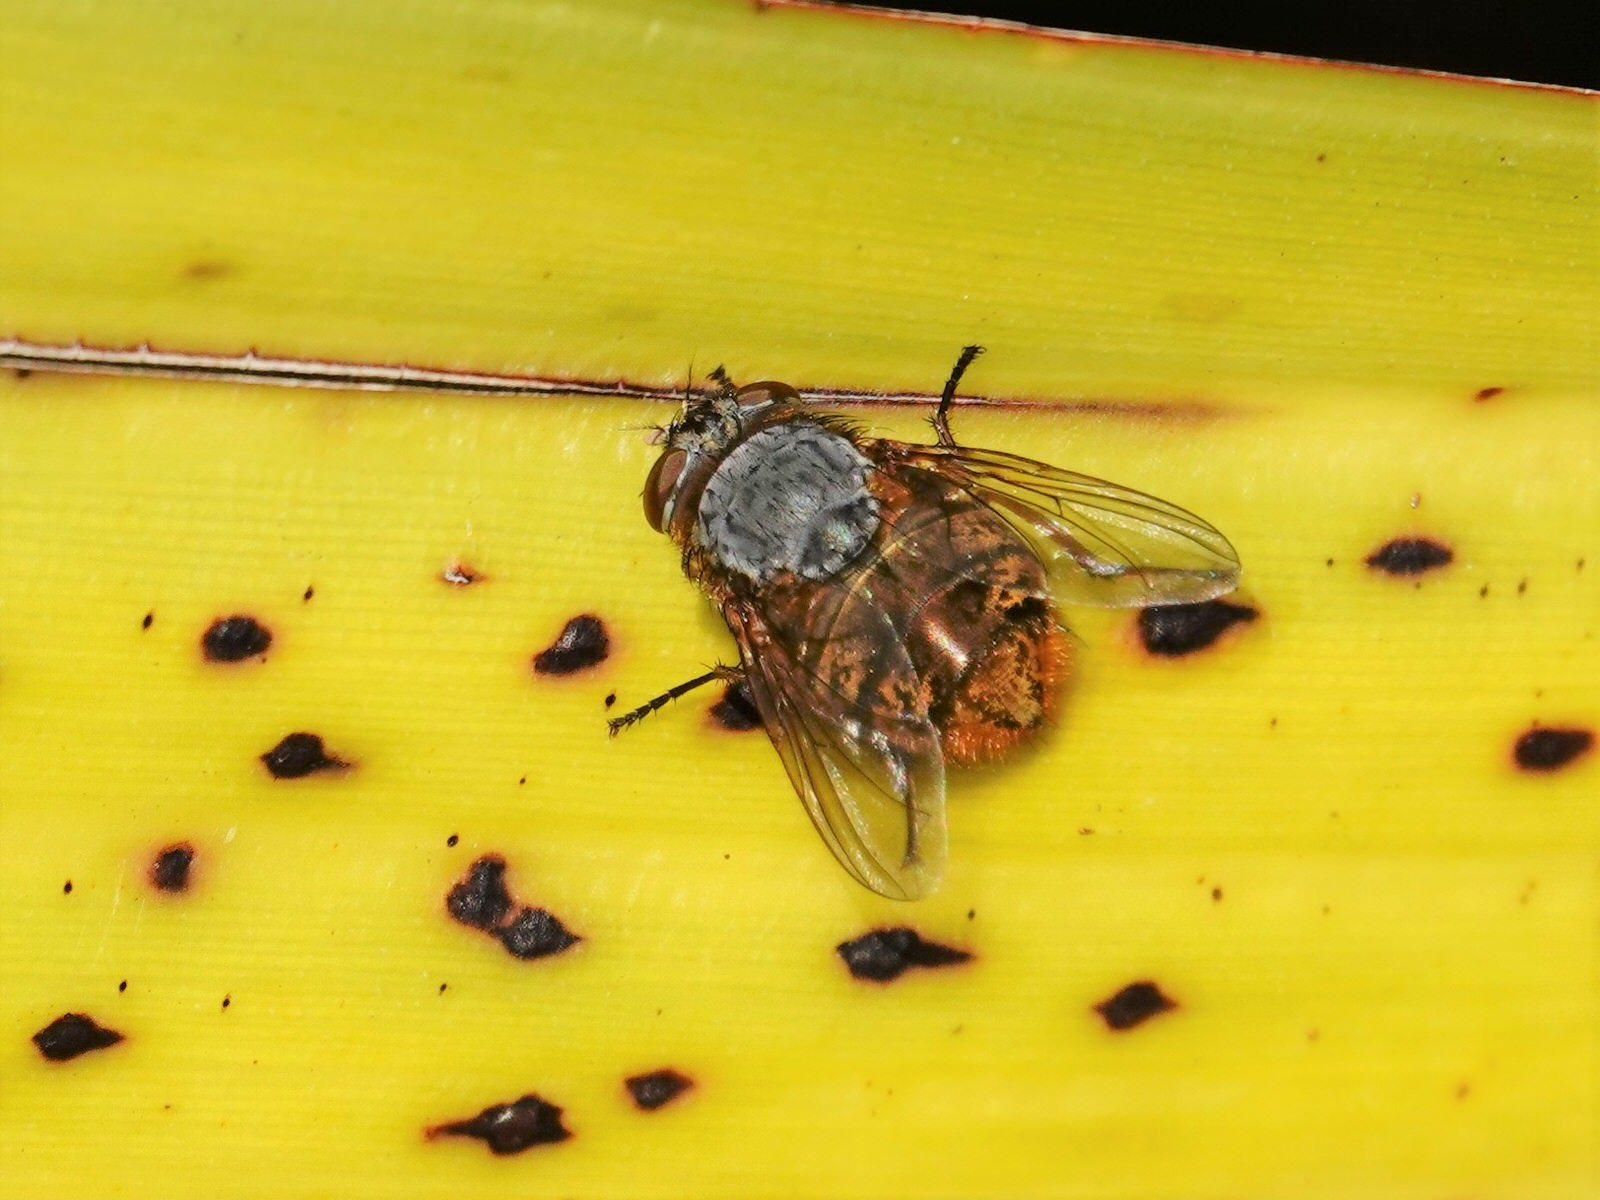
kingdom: Animalia
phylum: Arthropoda
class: Insecta
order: Diptera
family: Calliphoridae
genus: Calliphora
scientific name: Calliphora hilli
